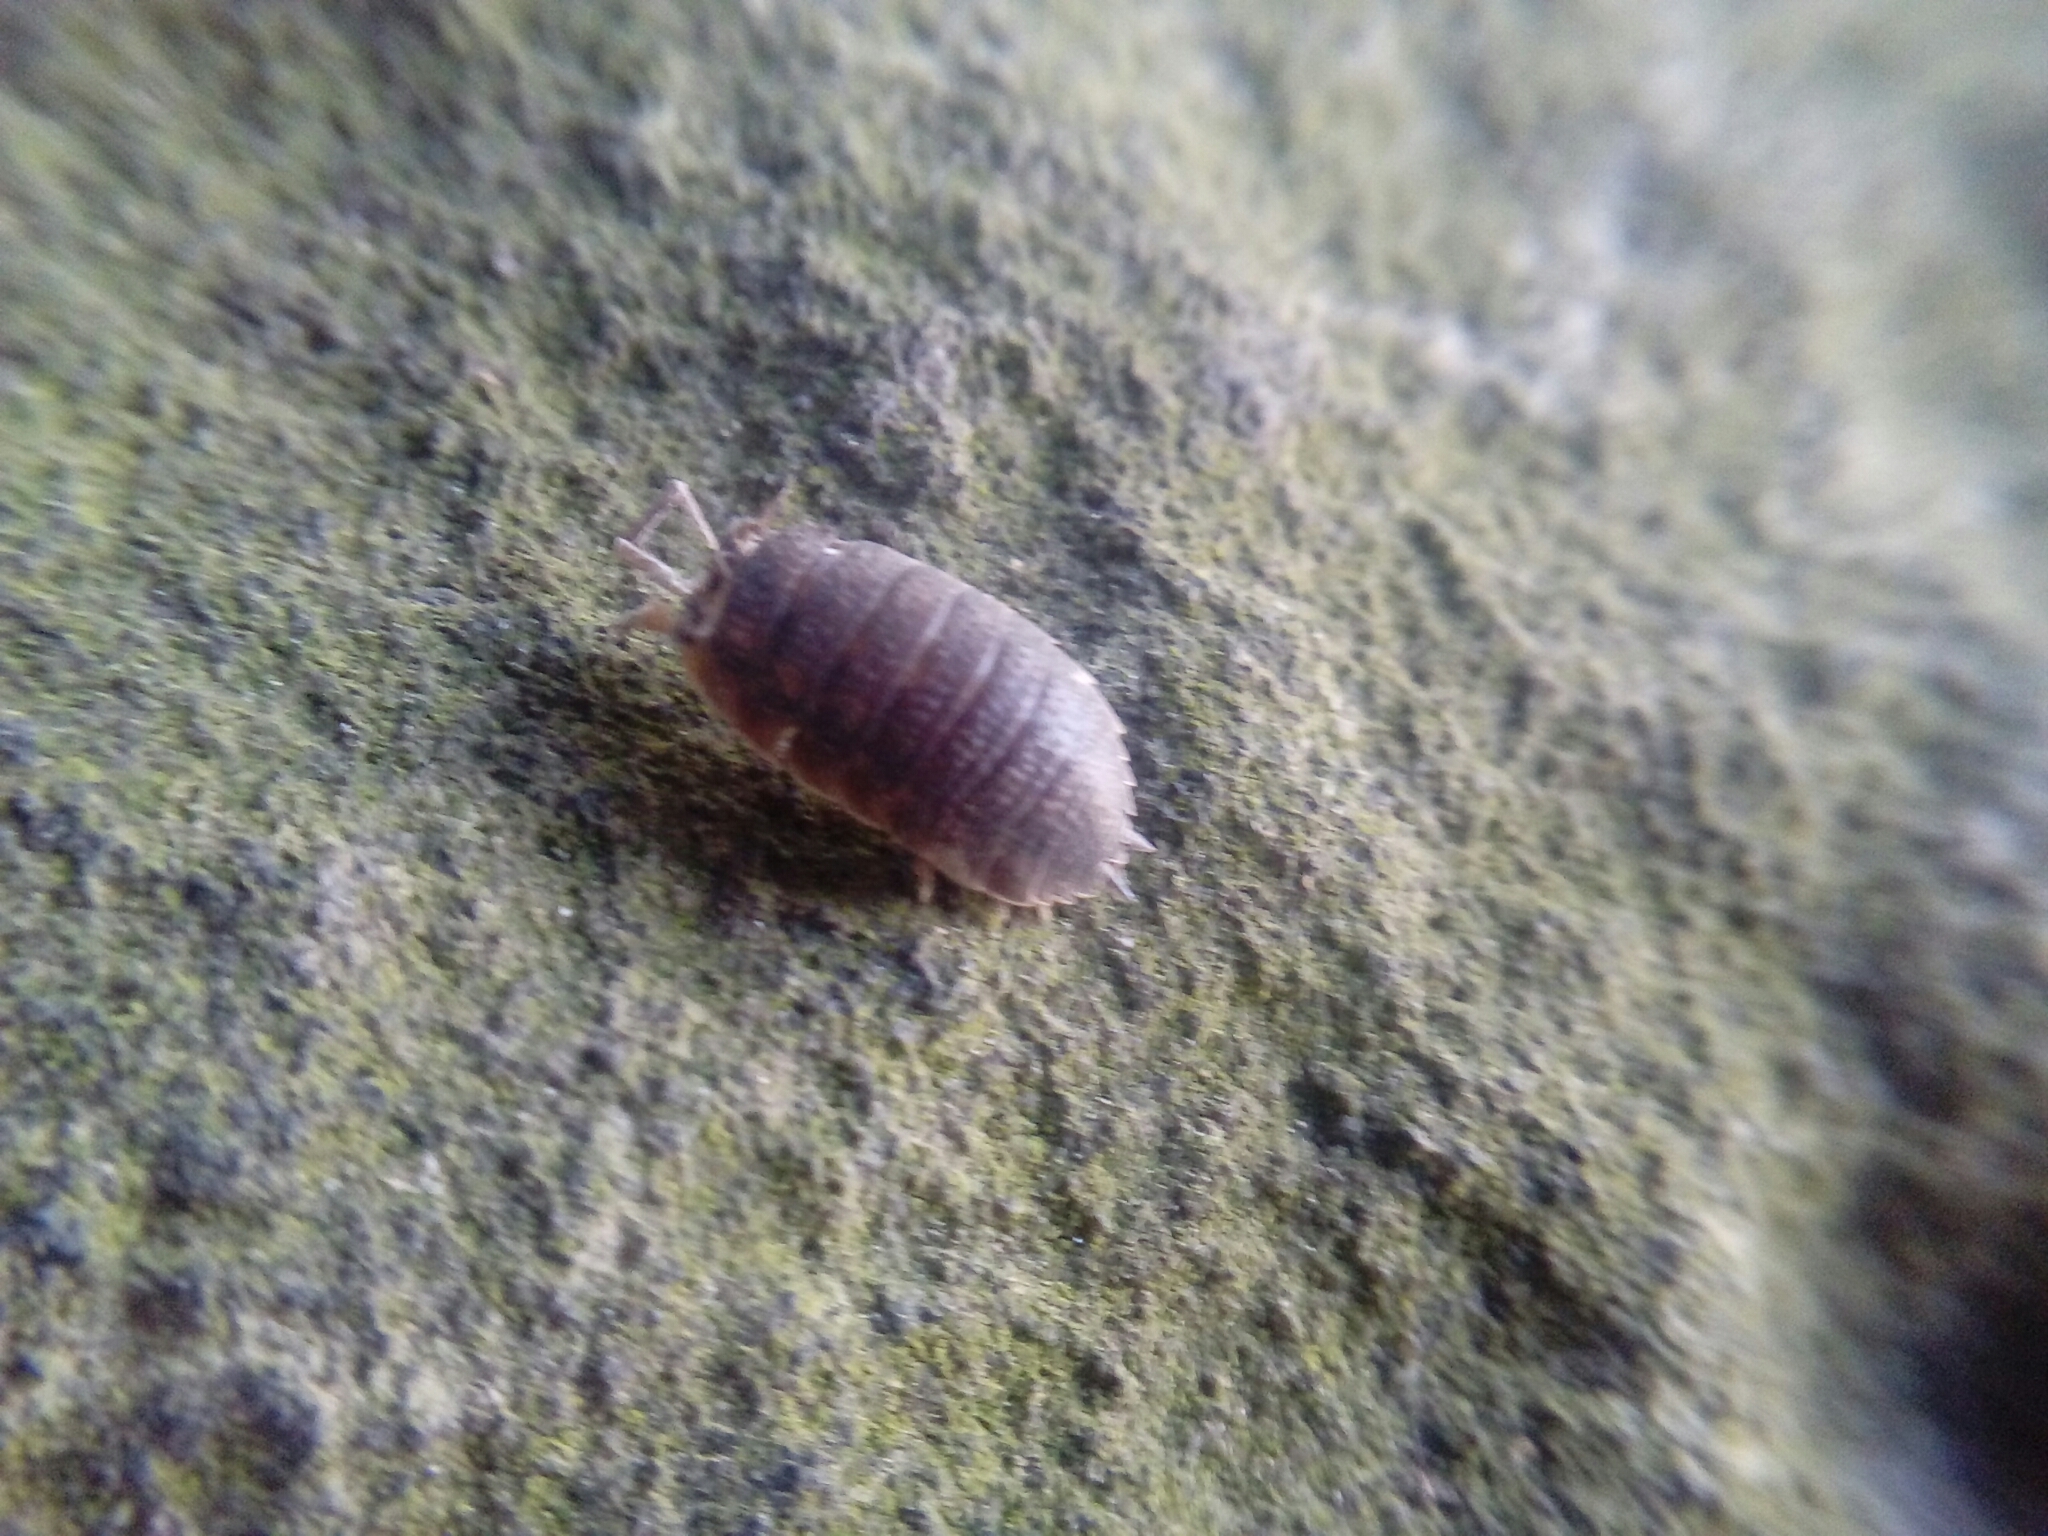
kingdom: Animalia
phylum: Arthropoda
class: Malacostraca
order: Isopoda
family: Porcellionidae
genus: Porcellio
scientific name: Porcellio scaber
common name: Common rough woodlouse
